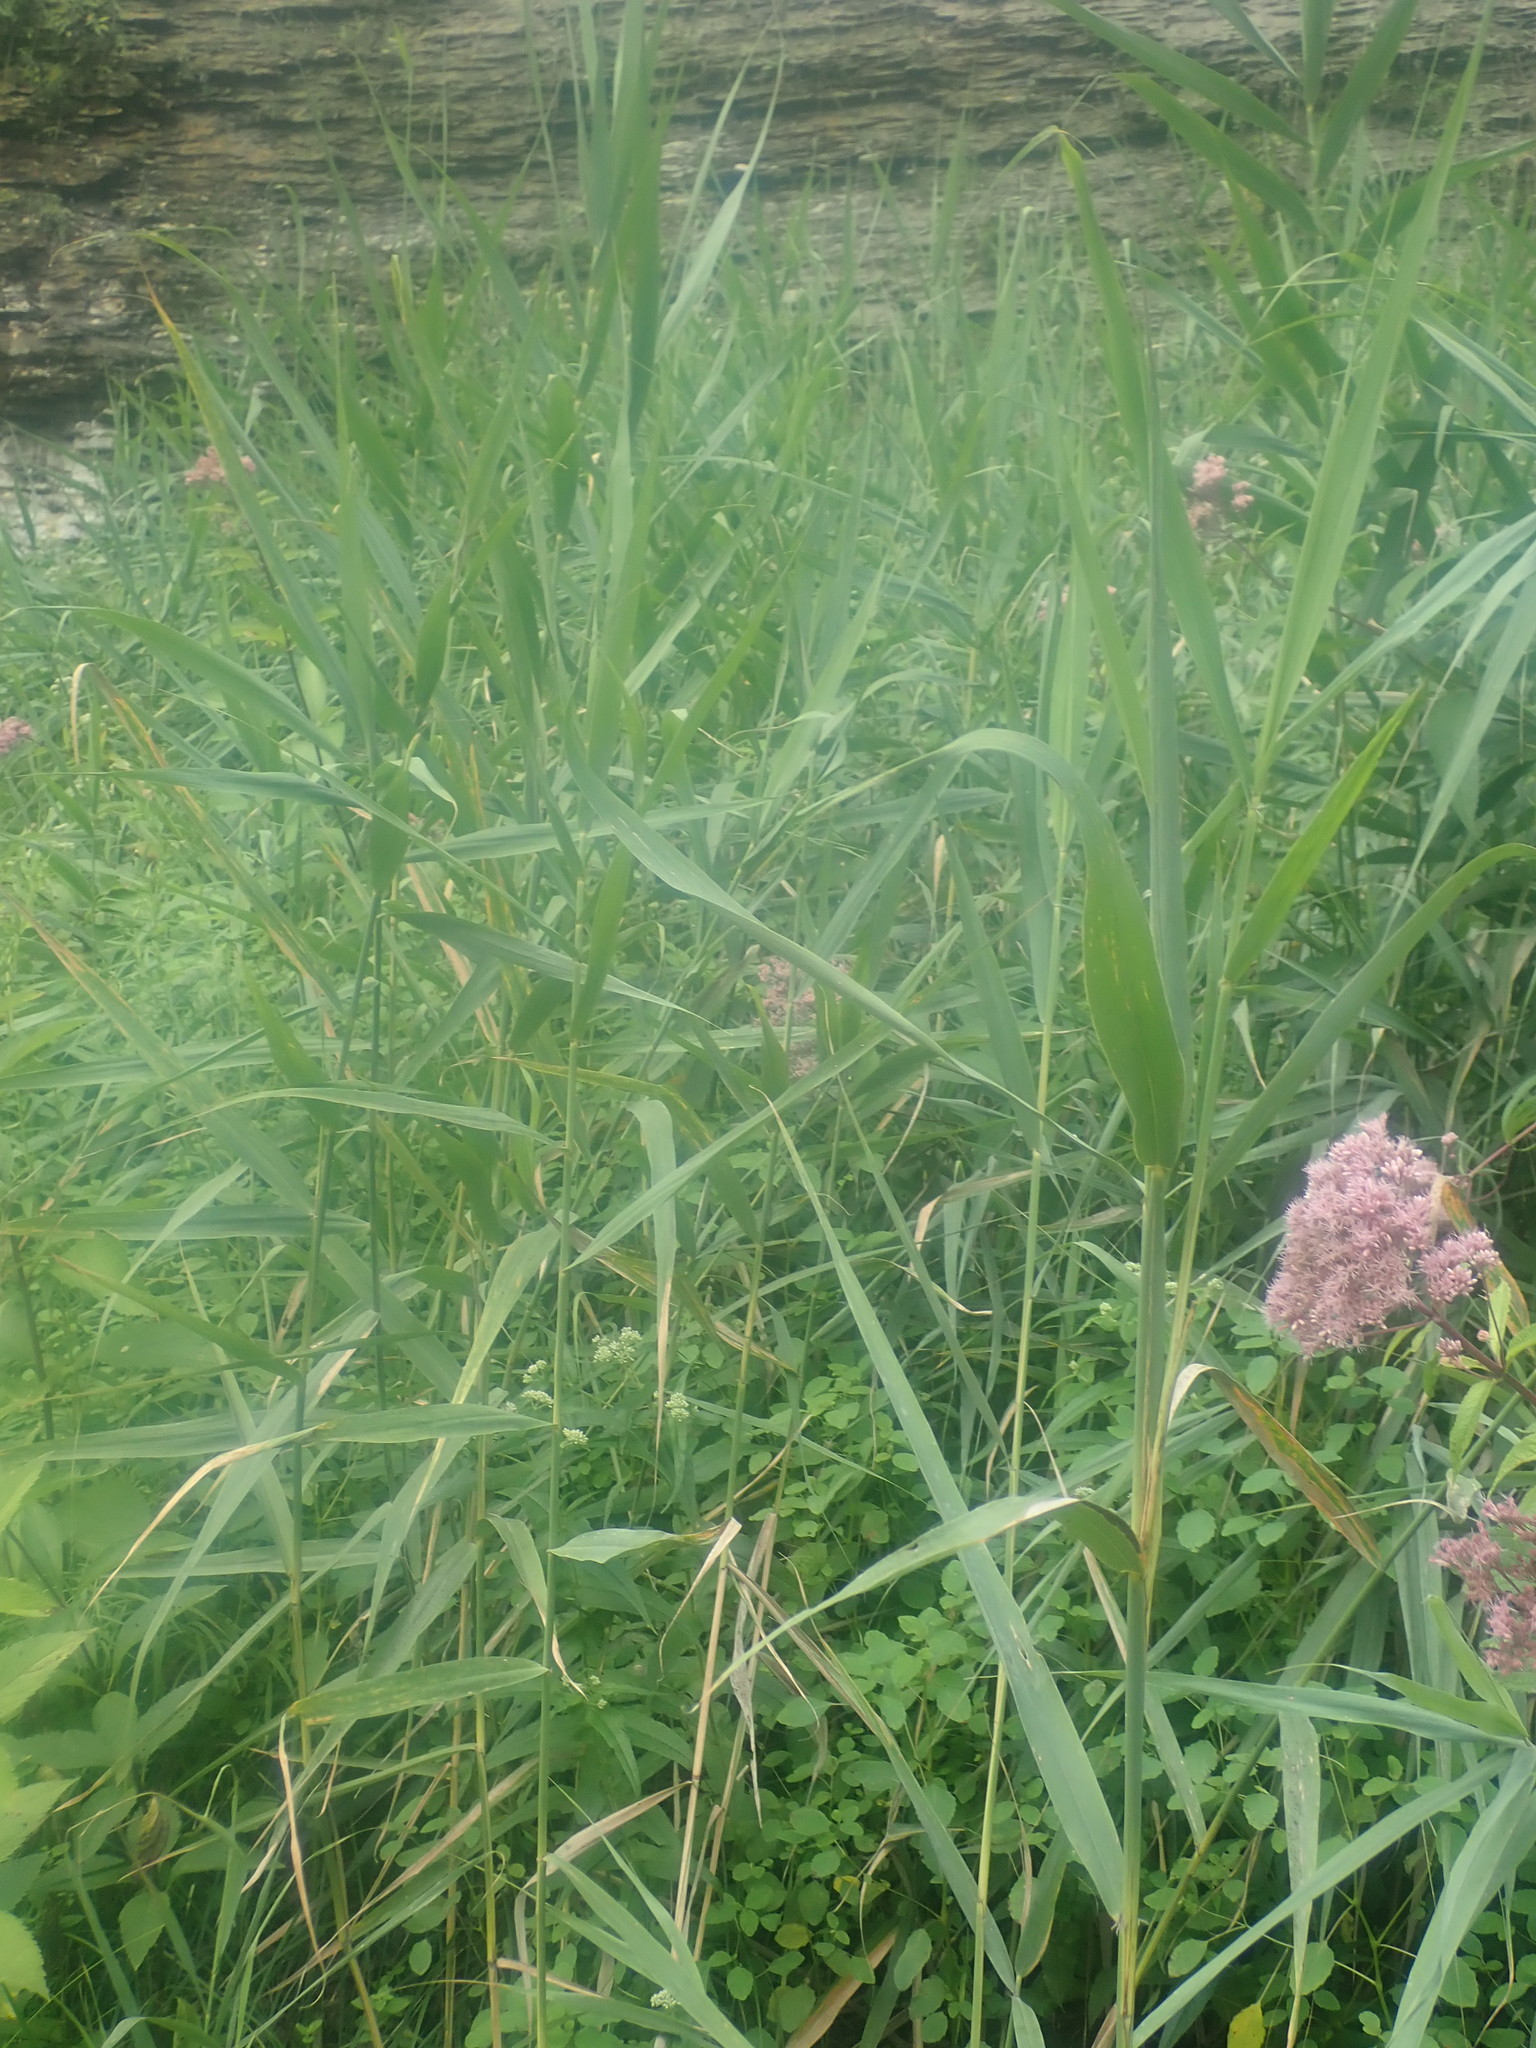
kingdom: Plantae
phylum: Tracheophyta
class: Liliopsida
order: Poales
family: Poaceae
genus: Phragmites
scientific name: Phragmites australis
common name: Common reed
